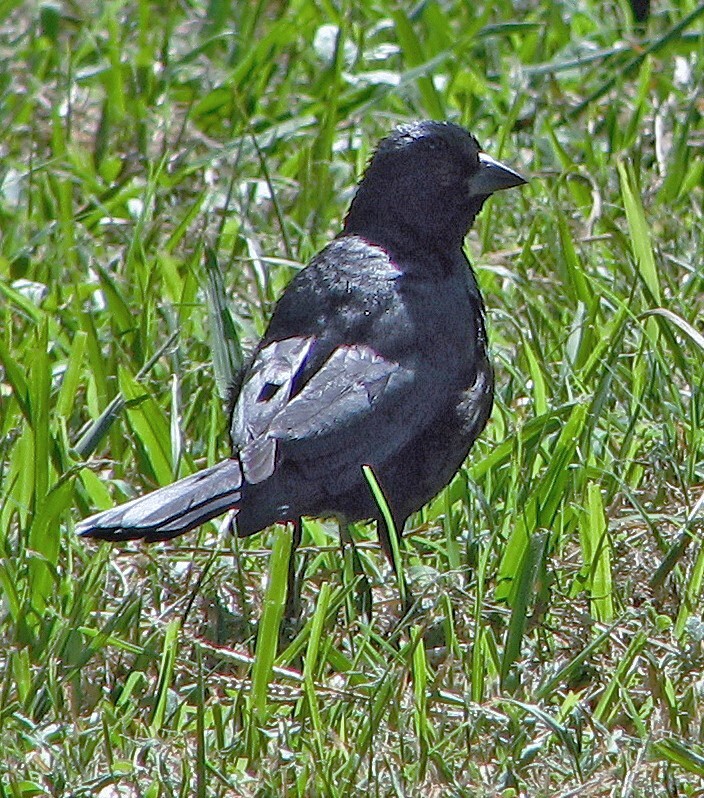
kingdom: Animalia
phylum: Chordata
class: Aves
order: Passeriformes
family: Icteridae
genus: Molothrus
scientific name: Molothrus rufoaxillaris
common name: Screaming cowbird
